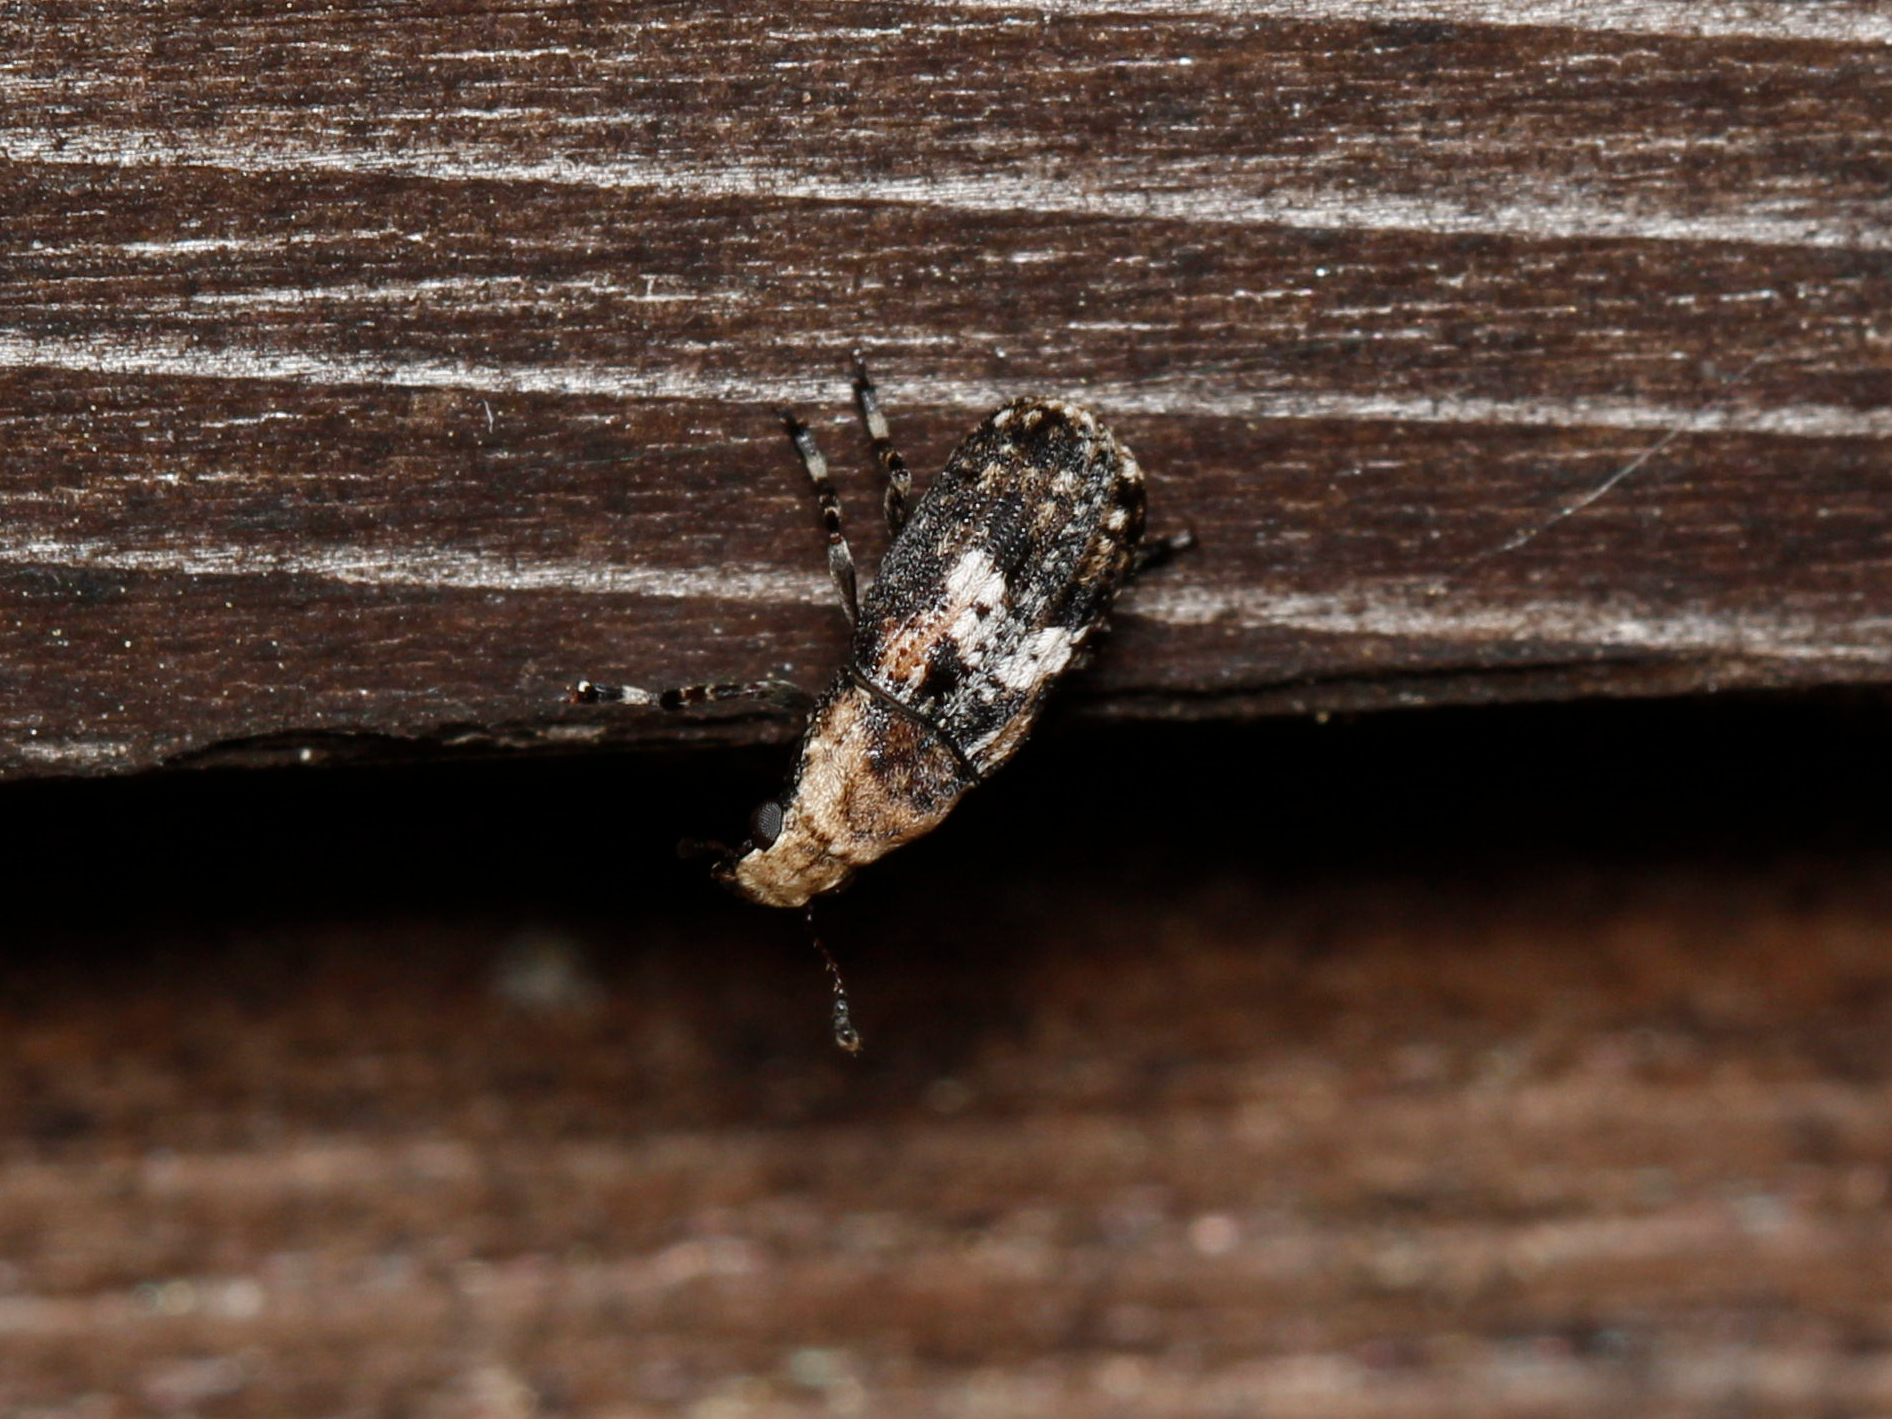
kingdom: Animalia
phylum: Arthropoda
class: Insecta
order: Coleoptera
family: Anthribidae
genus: Euparius
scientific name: Euparius paganus
